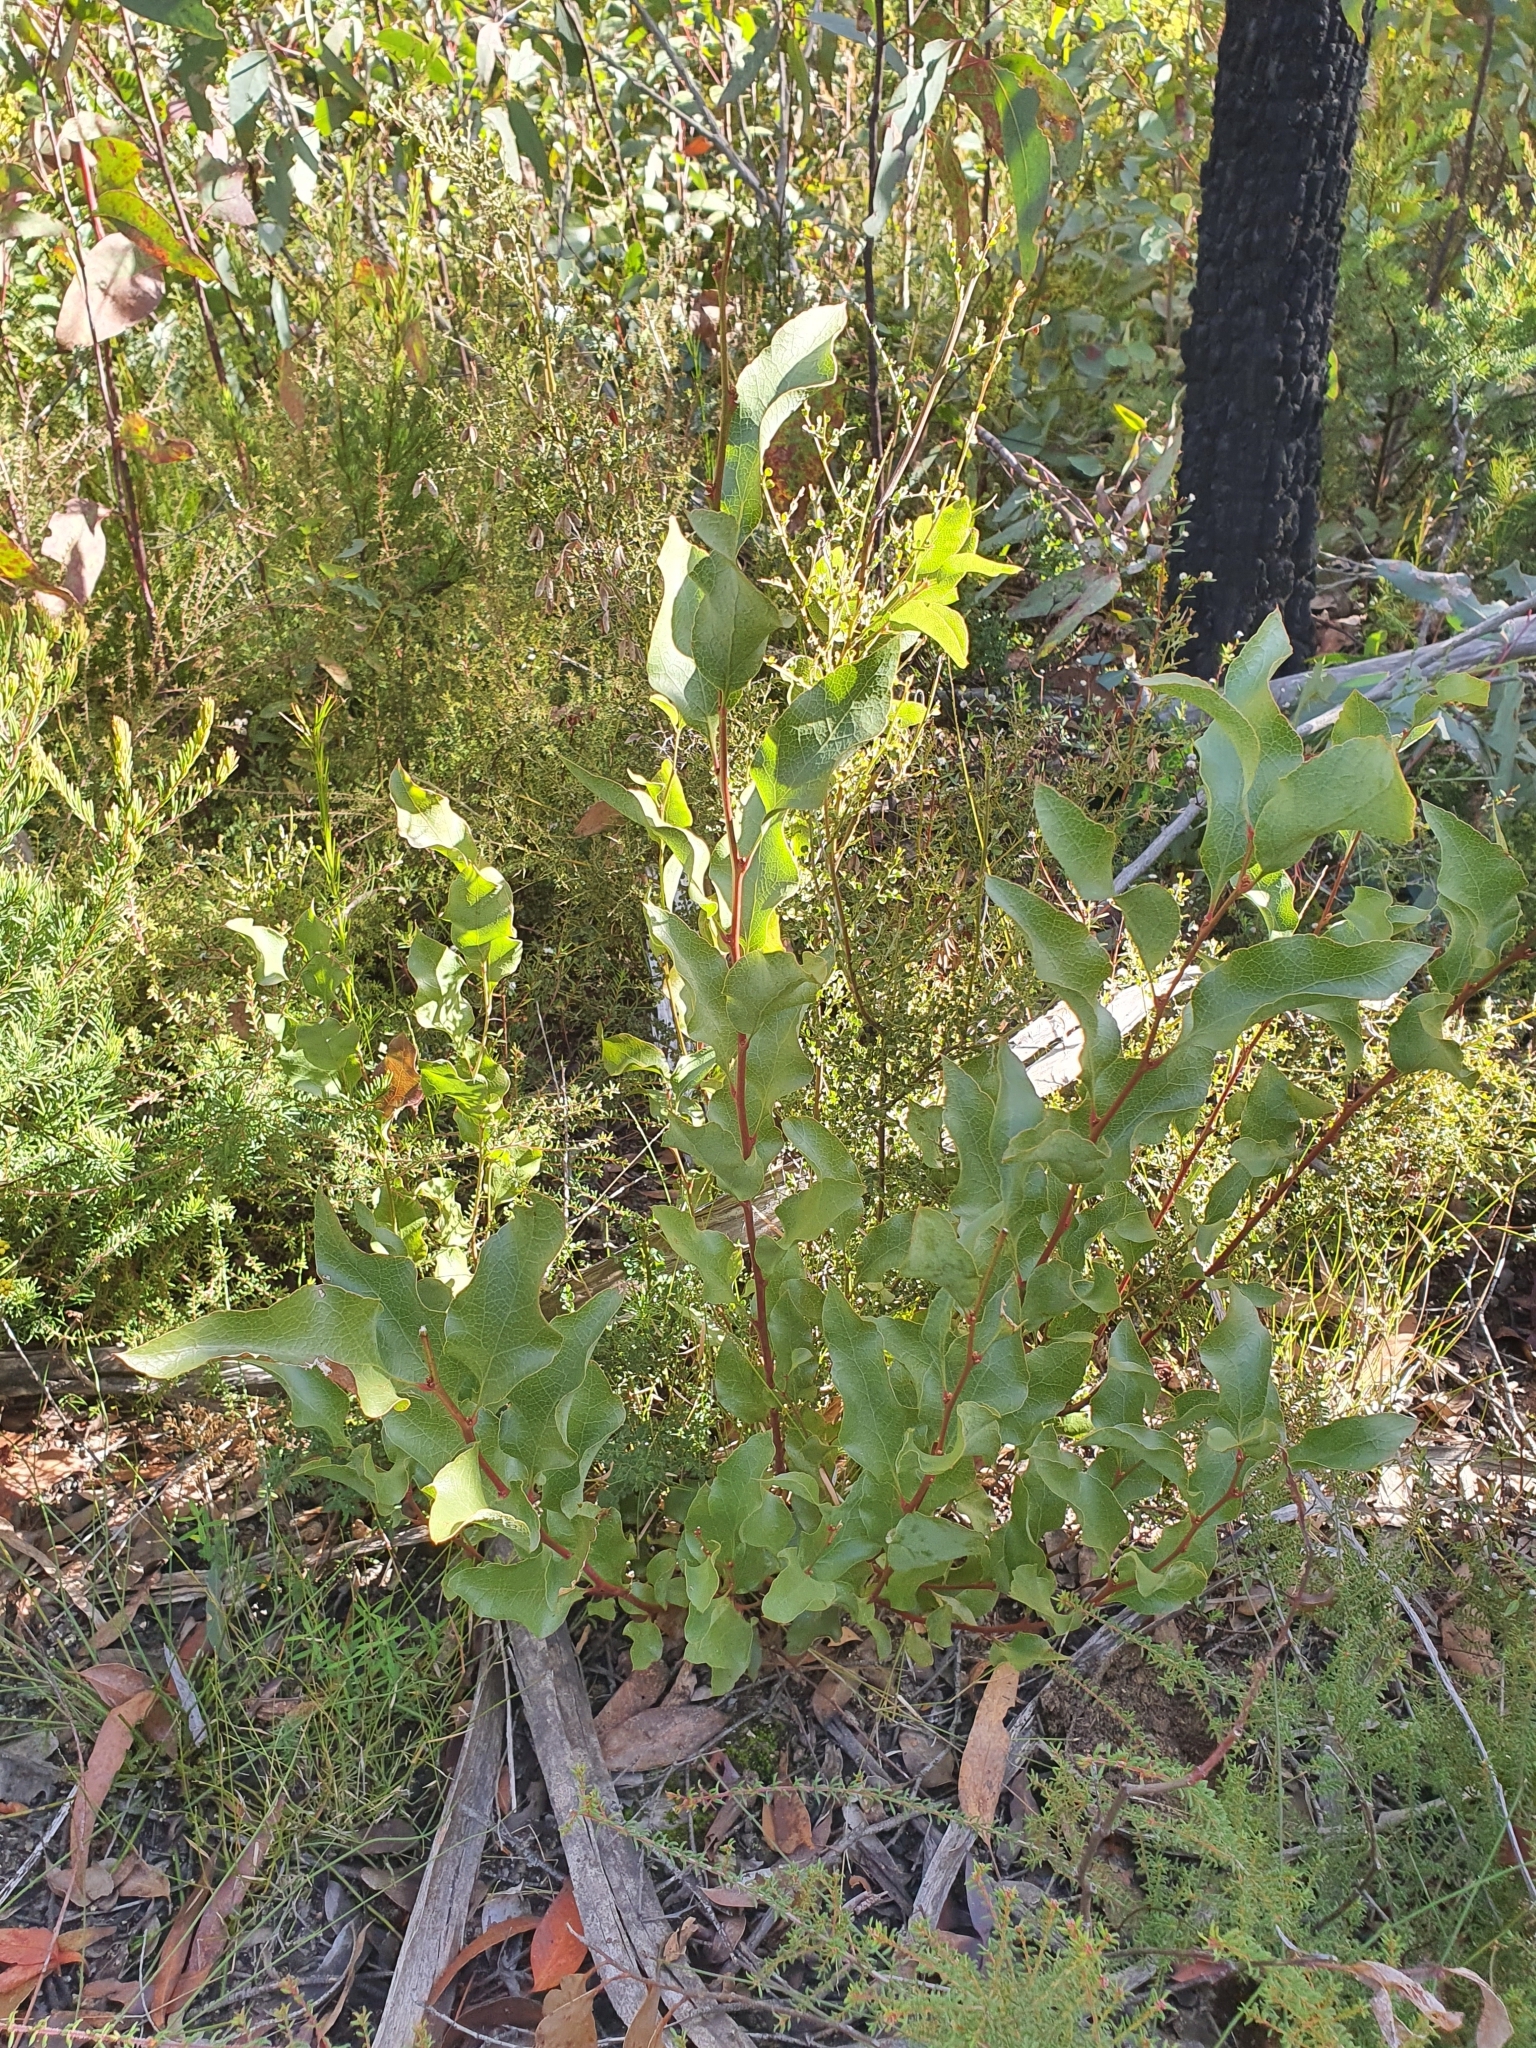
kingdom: Plantae
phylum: Tracheophyta
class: Magnoliopsida
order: Fabales
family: Fabaceae
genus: Daviesia
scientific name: Daviesia latifolia
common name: Hop bitter-pea
